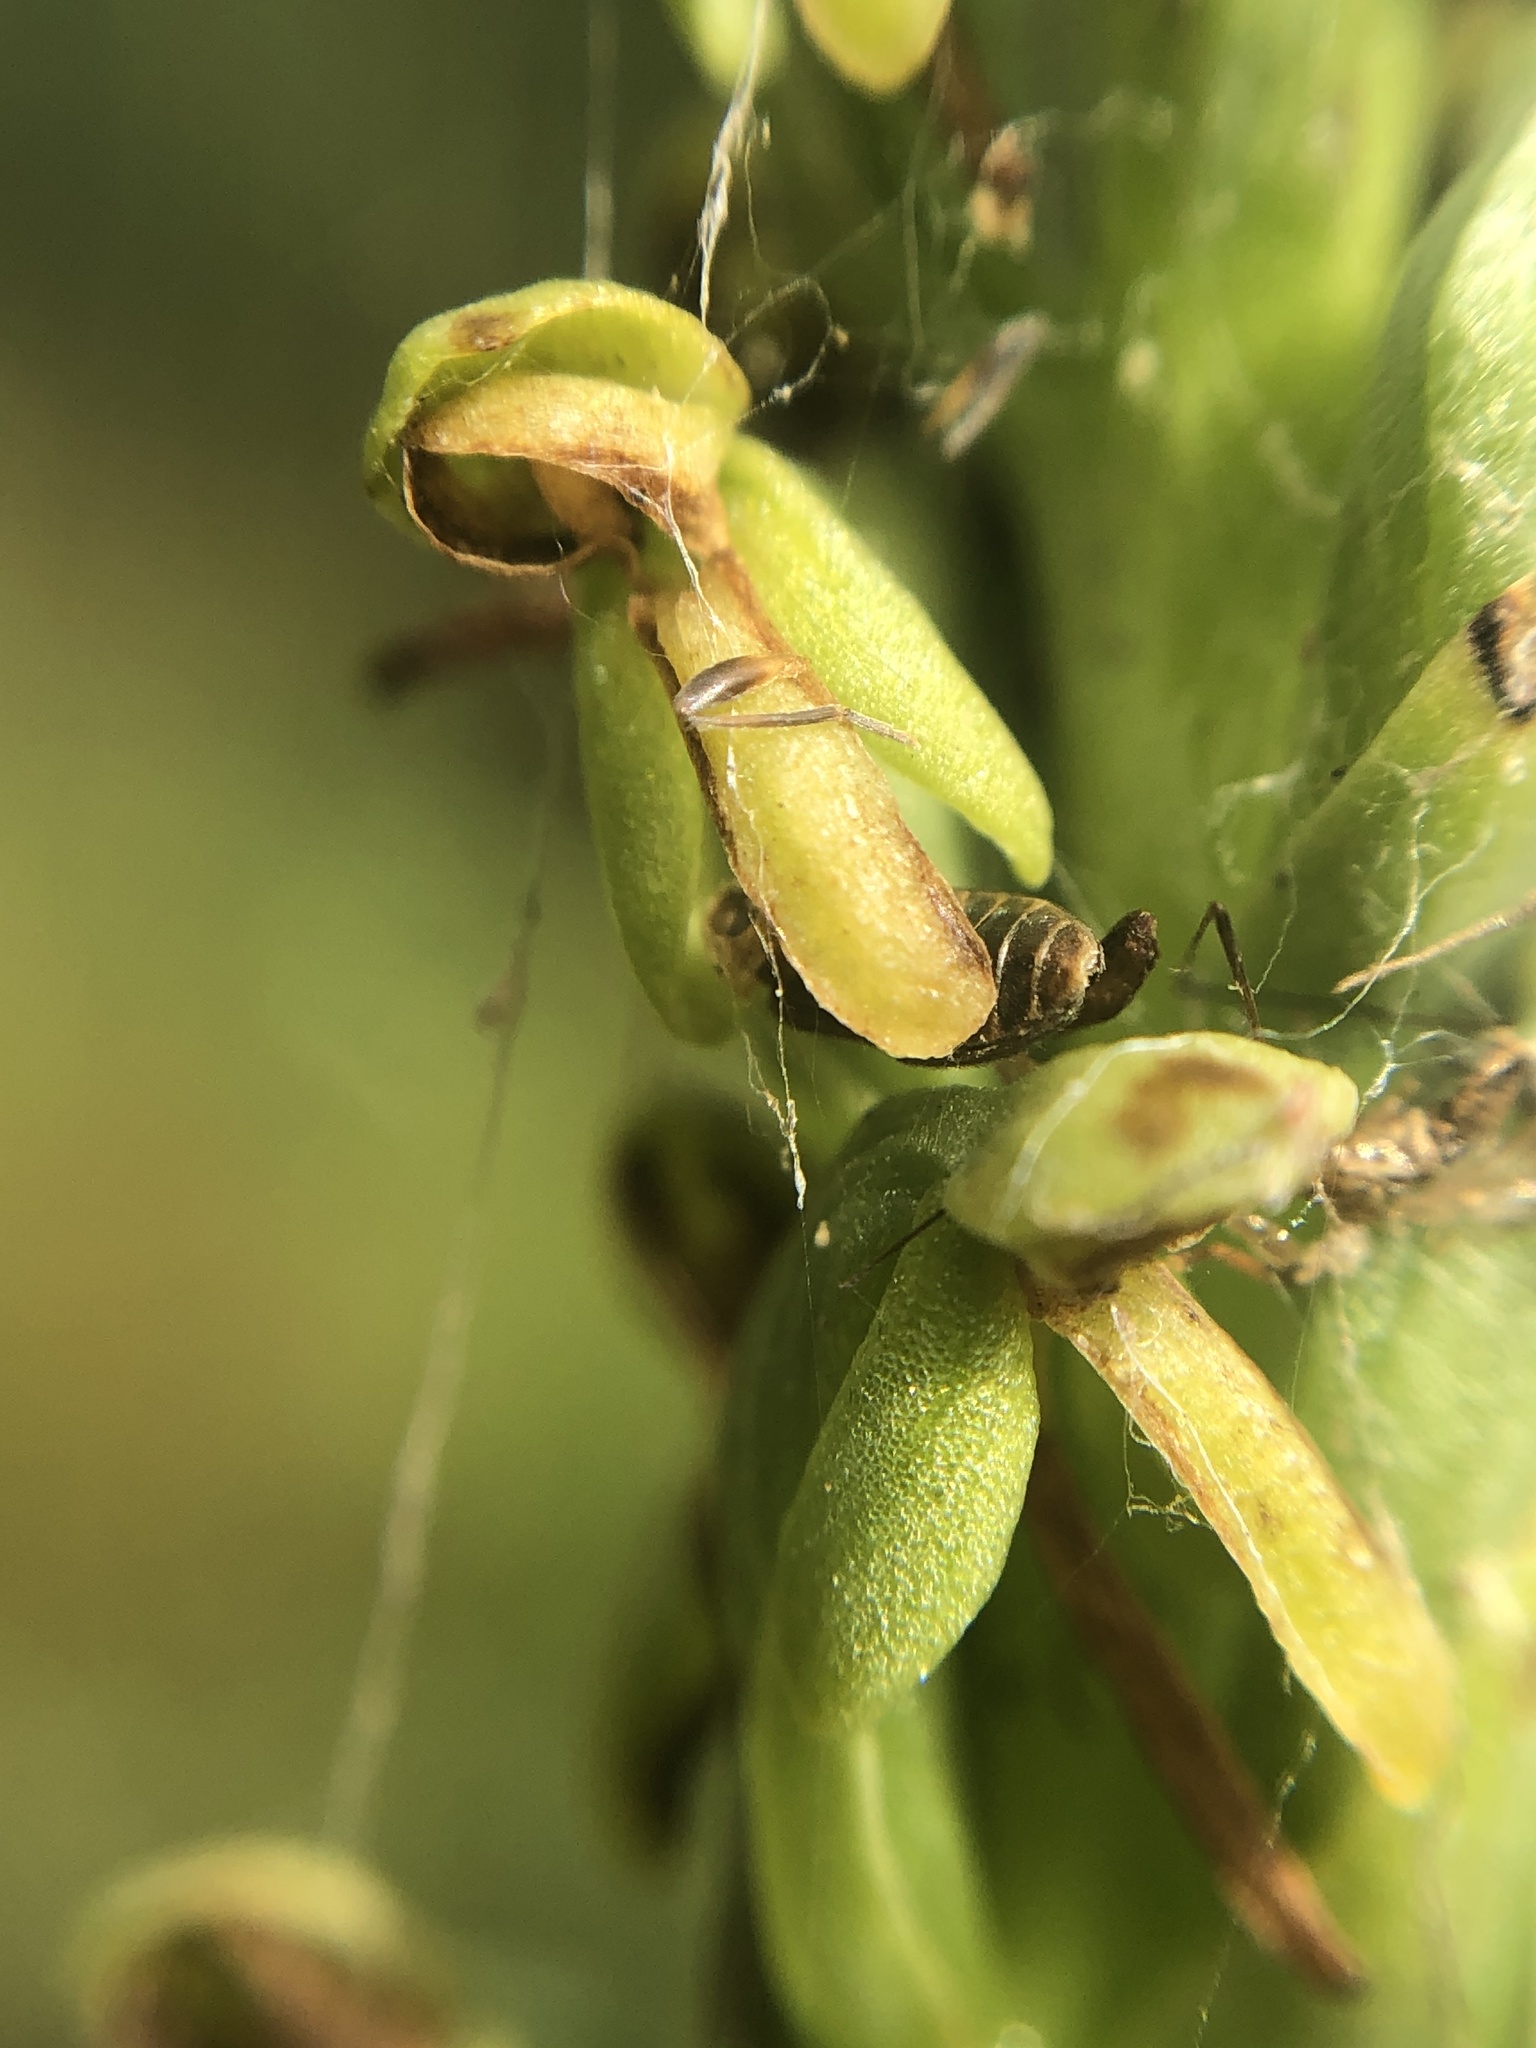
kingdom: Plantae
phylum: Tracheophyta
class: Liliopsida
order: Asparagales
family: Orchidaceae
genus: Platanthera
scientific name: Platanthera sparsiflora
